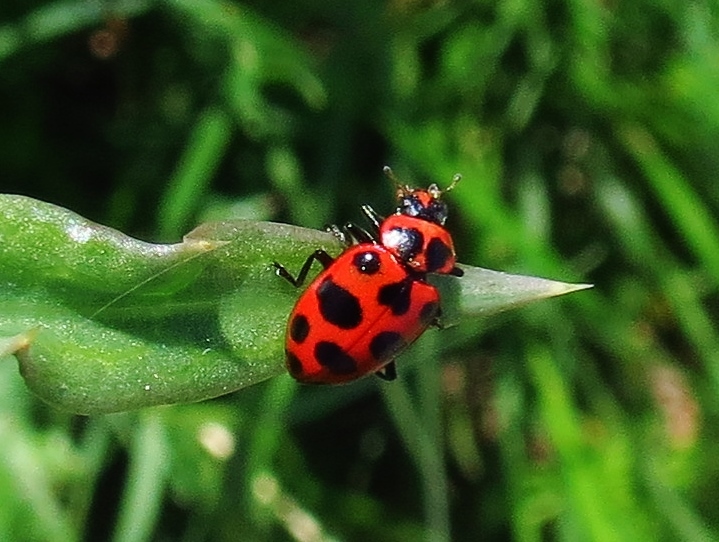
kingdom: Animalia
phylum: Arthropoda
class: Insecta
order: Coleoptera
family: Coccinellidae
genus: Coleomegilla
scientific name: Coleomegilla maculata
